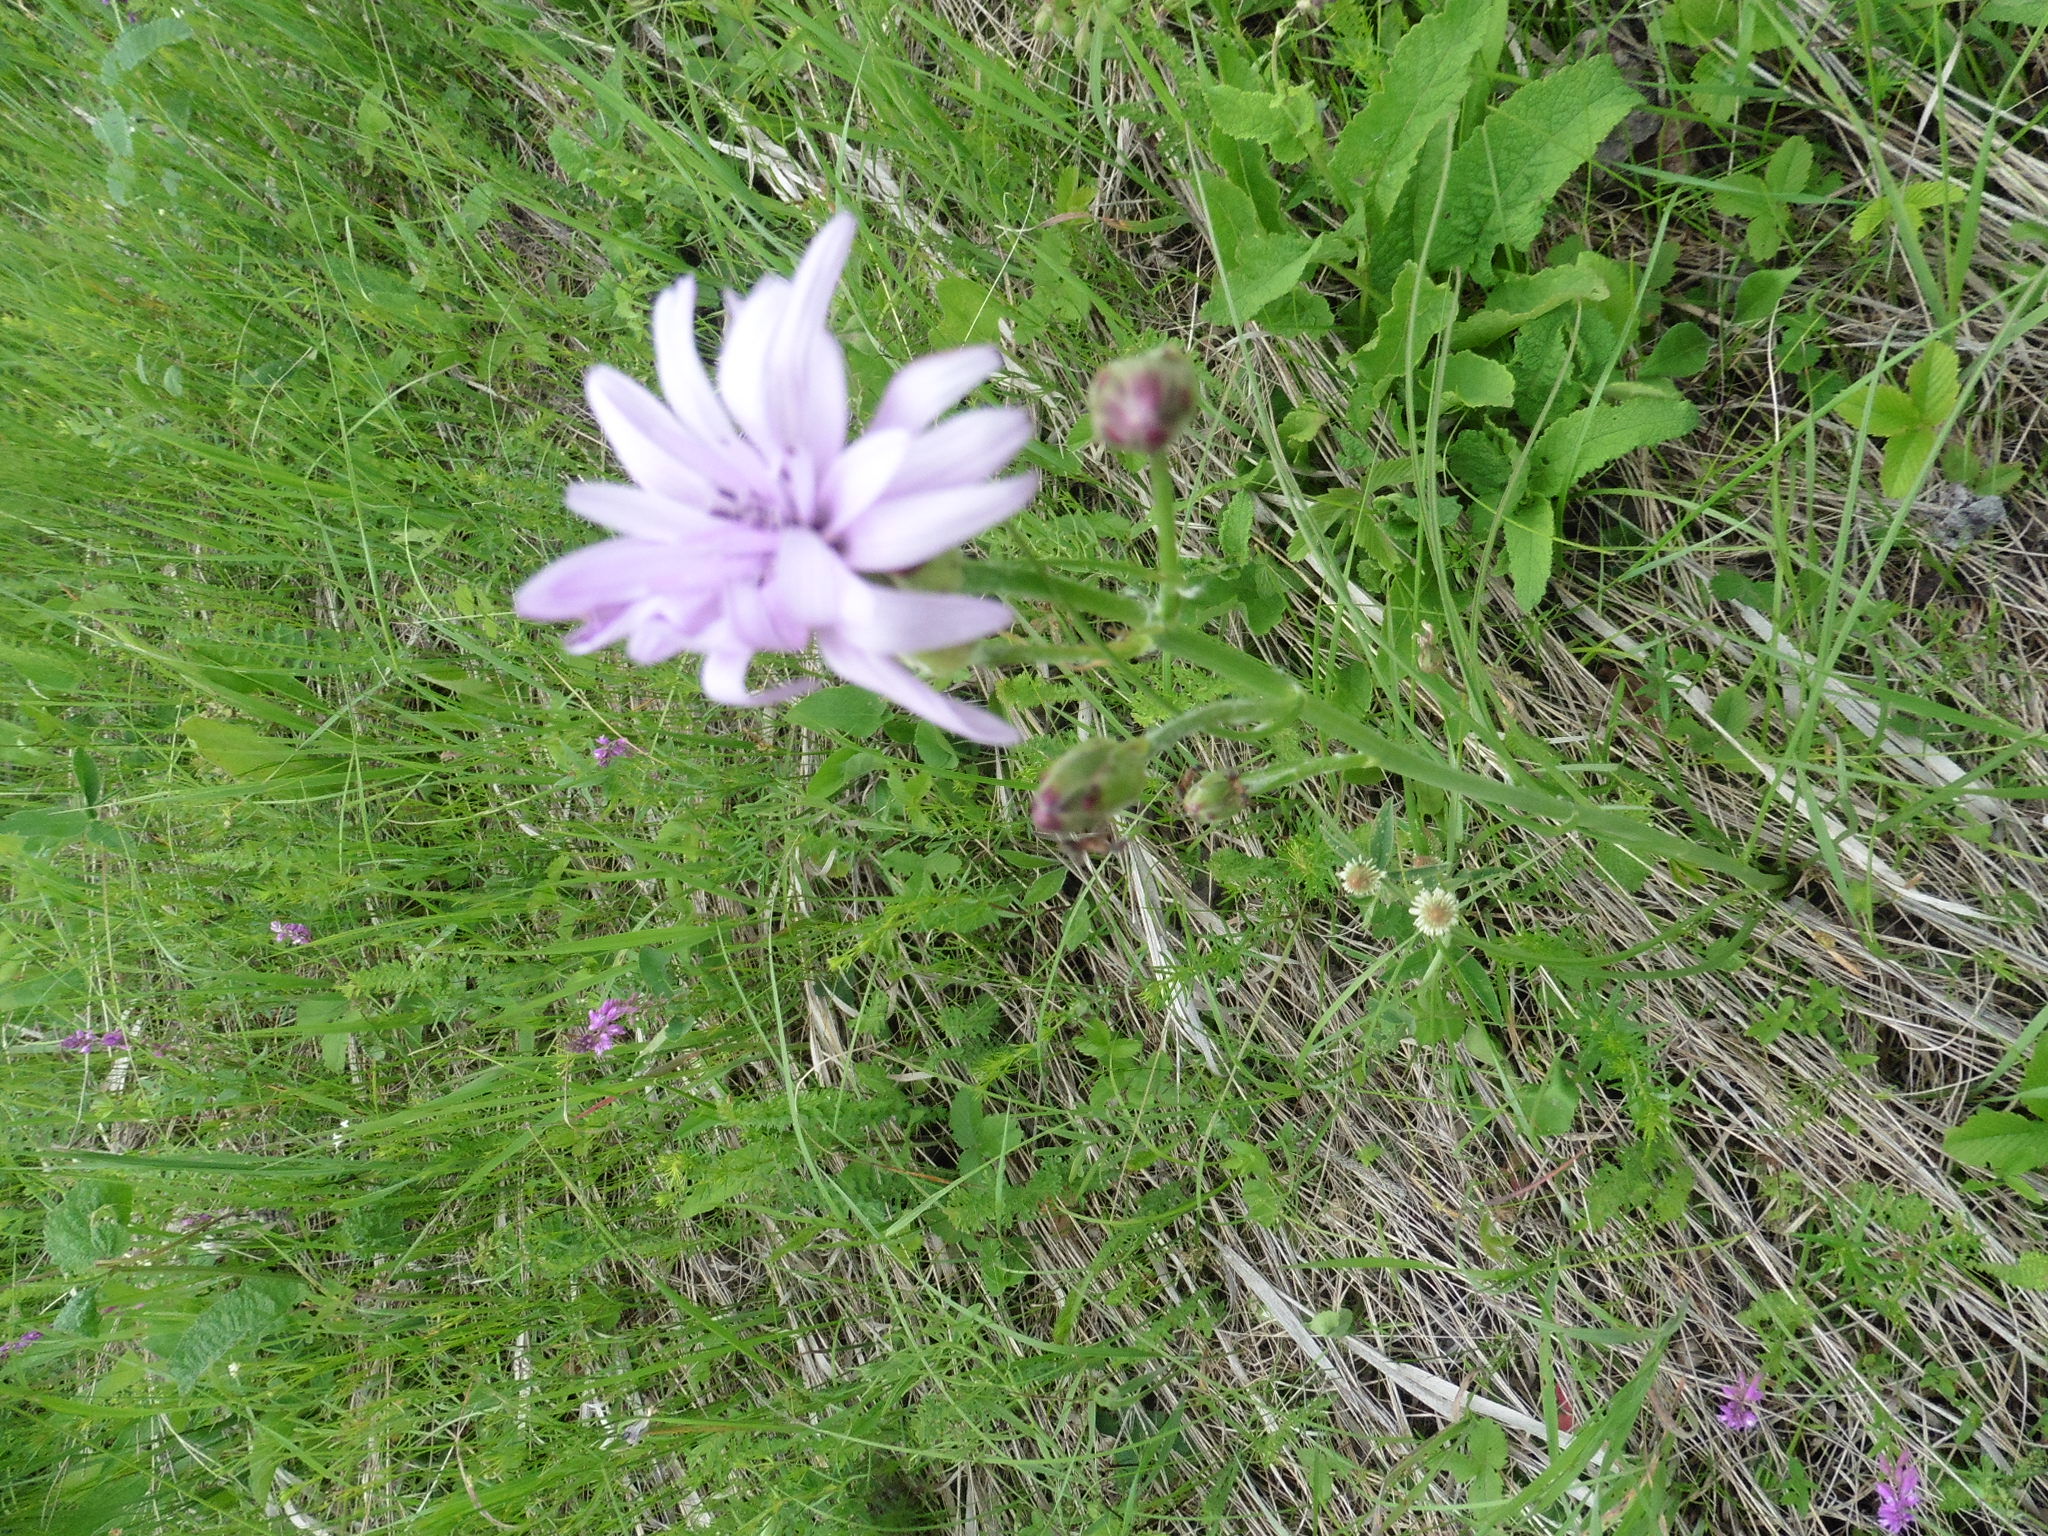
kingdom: Plantae
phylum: Tracheophyta
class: Magnoliopsida
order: Asterales
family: Asteraceae
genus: Scorzonera
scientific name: Scorzonera purpurea
